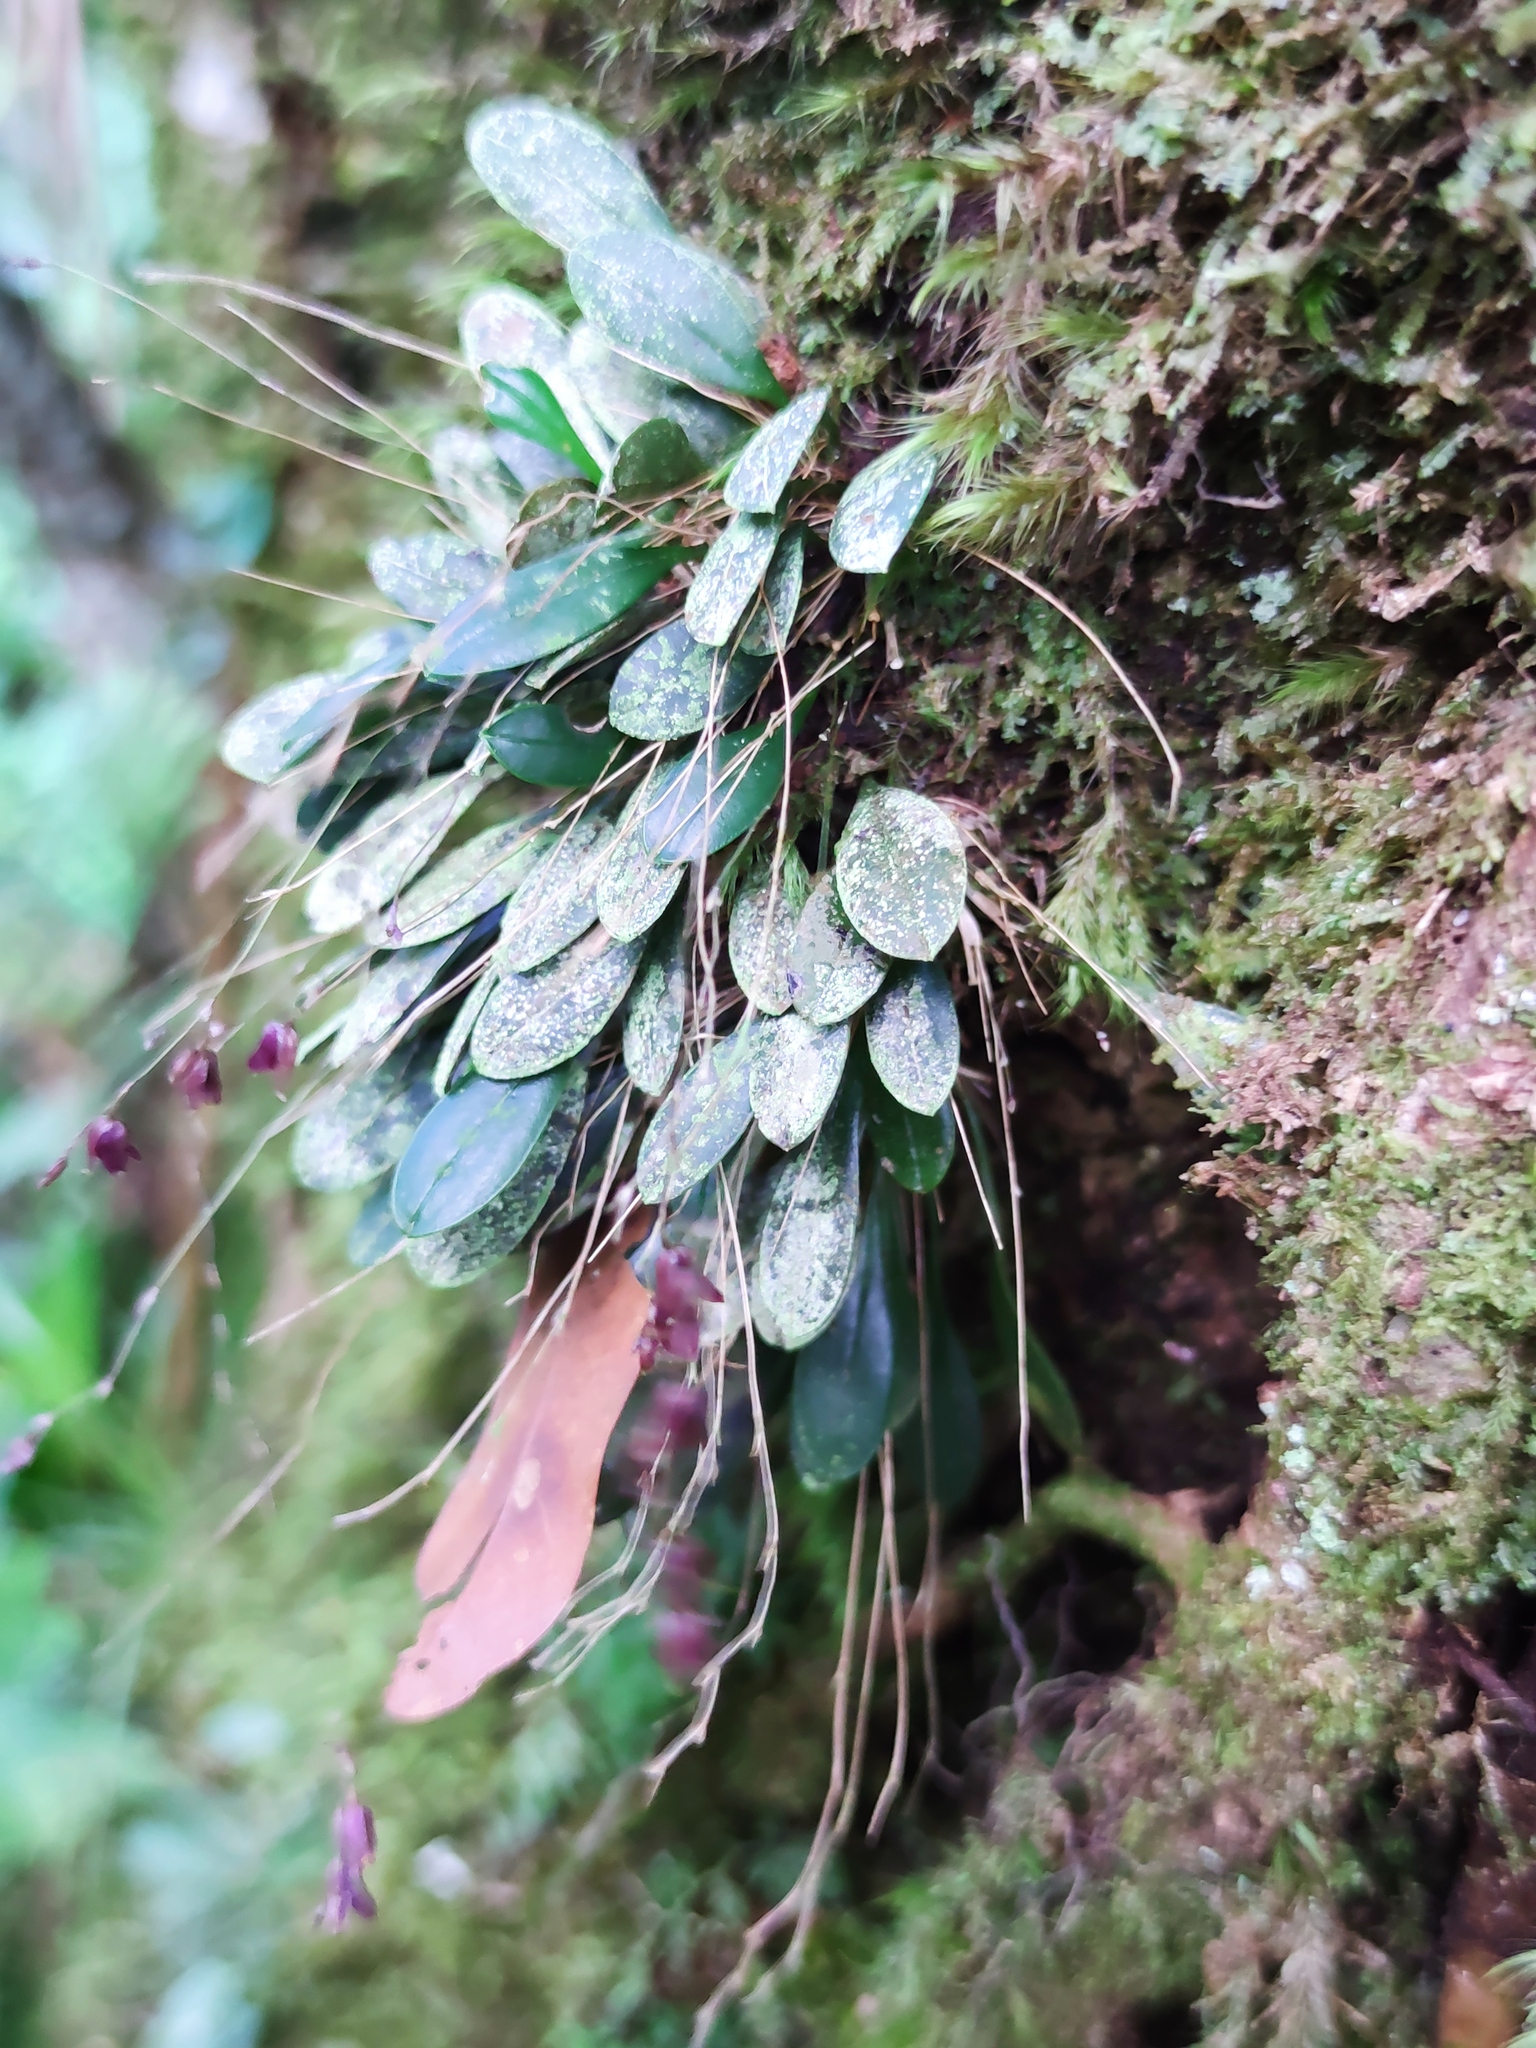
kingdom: Plantae
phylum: Tracheophyta
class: Liliopsida
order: Asparagales
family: Orchidaceae
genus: Muscarella
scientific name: Muscarella segregatifolia
